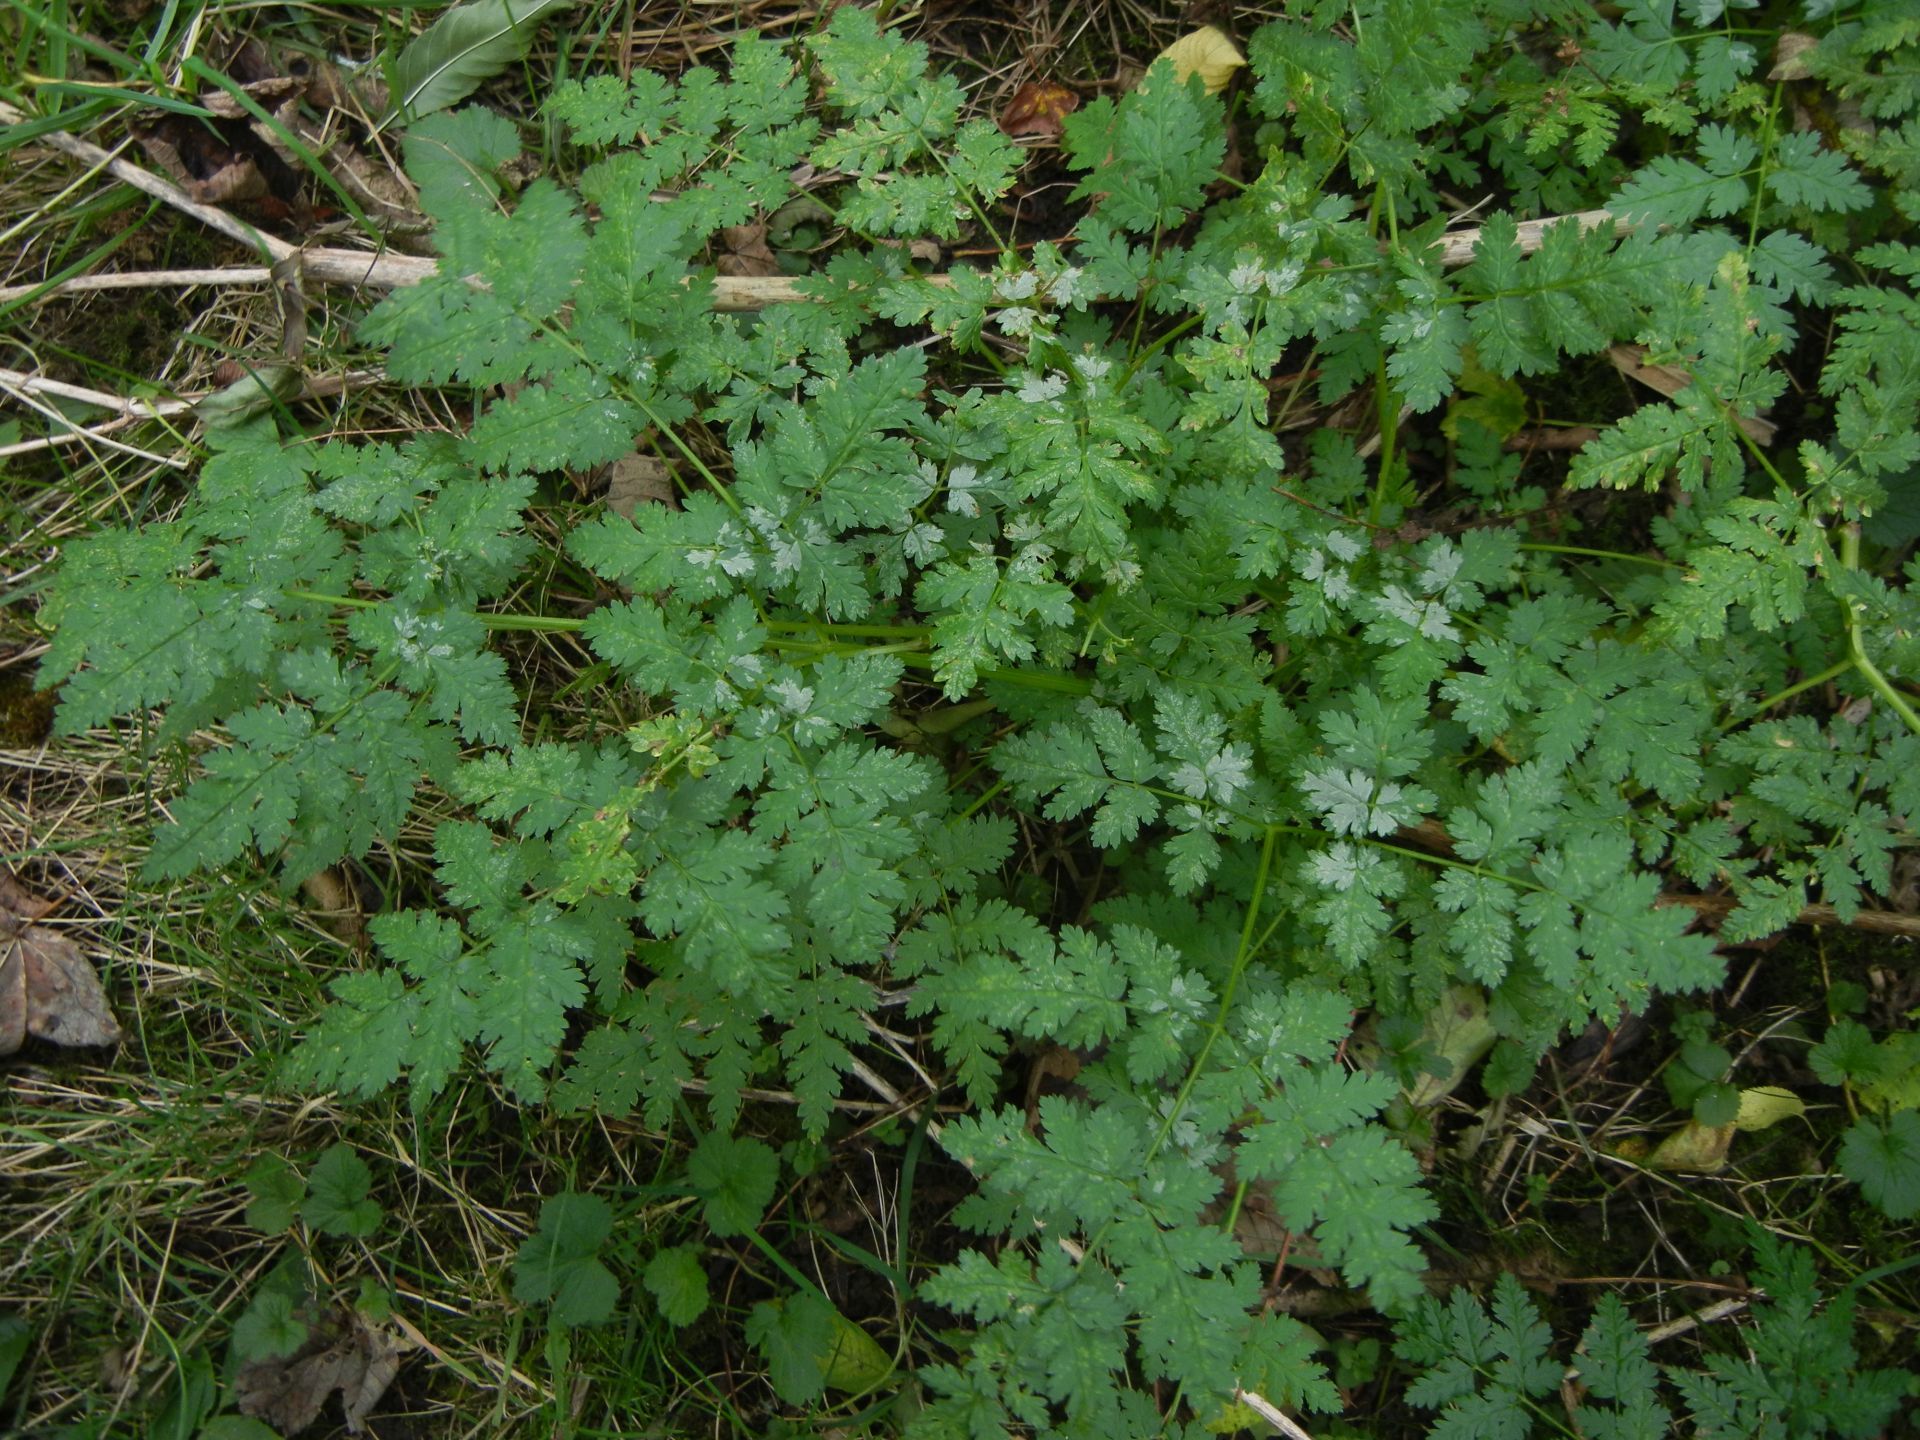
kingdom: Plantae
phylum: Tracheophyta
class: Magnoliopsida
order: Apiales
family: Apiaceae
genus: Myrrhis
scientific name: Myrrhis odorata
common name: Sweet cicely
